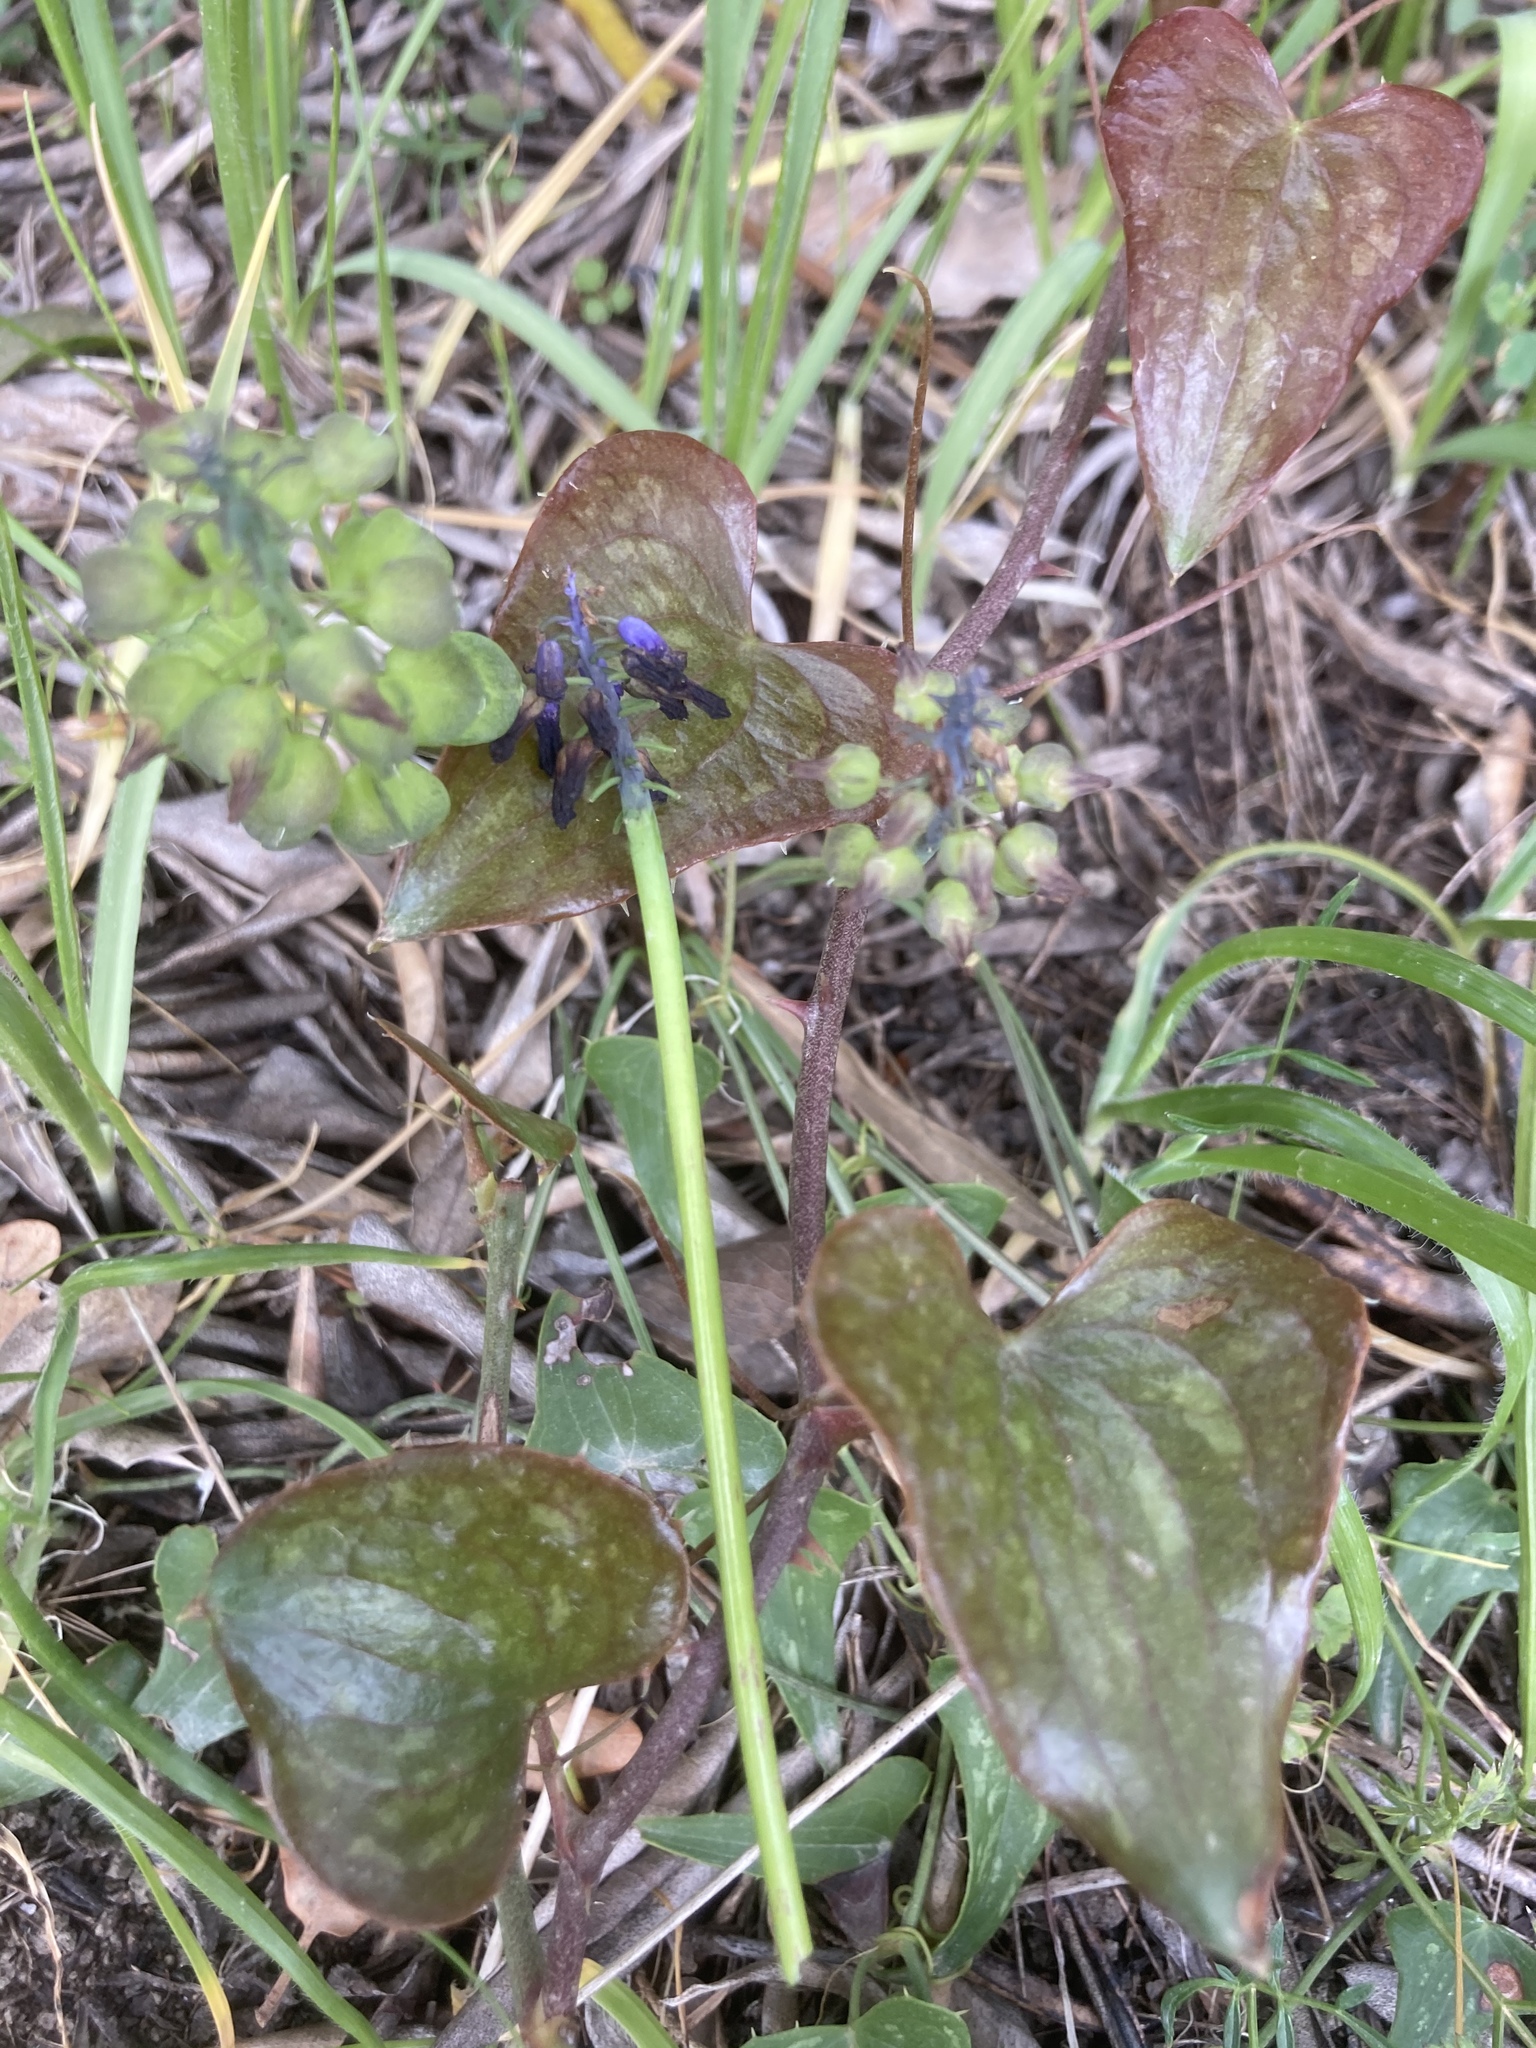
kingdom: Plantae
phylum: Tracheophyta
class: Liliopsida
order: Liliales
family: Smilacaceae
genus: Smilax
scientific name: Smilax aspera
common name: Common smilax
